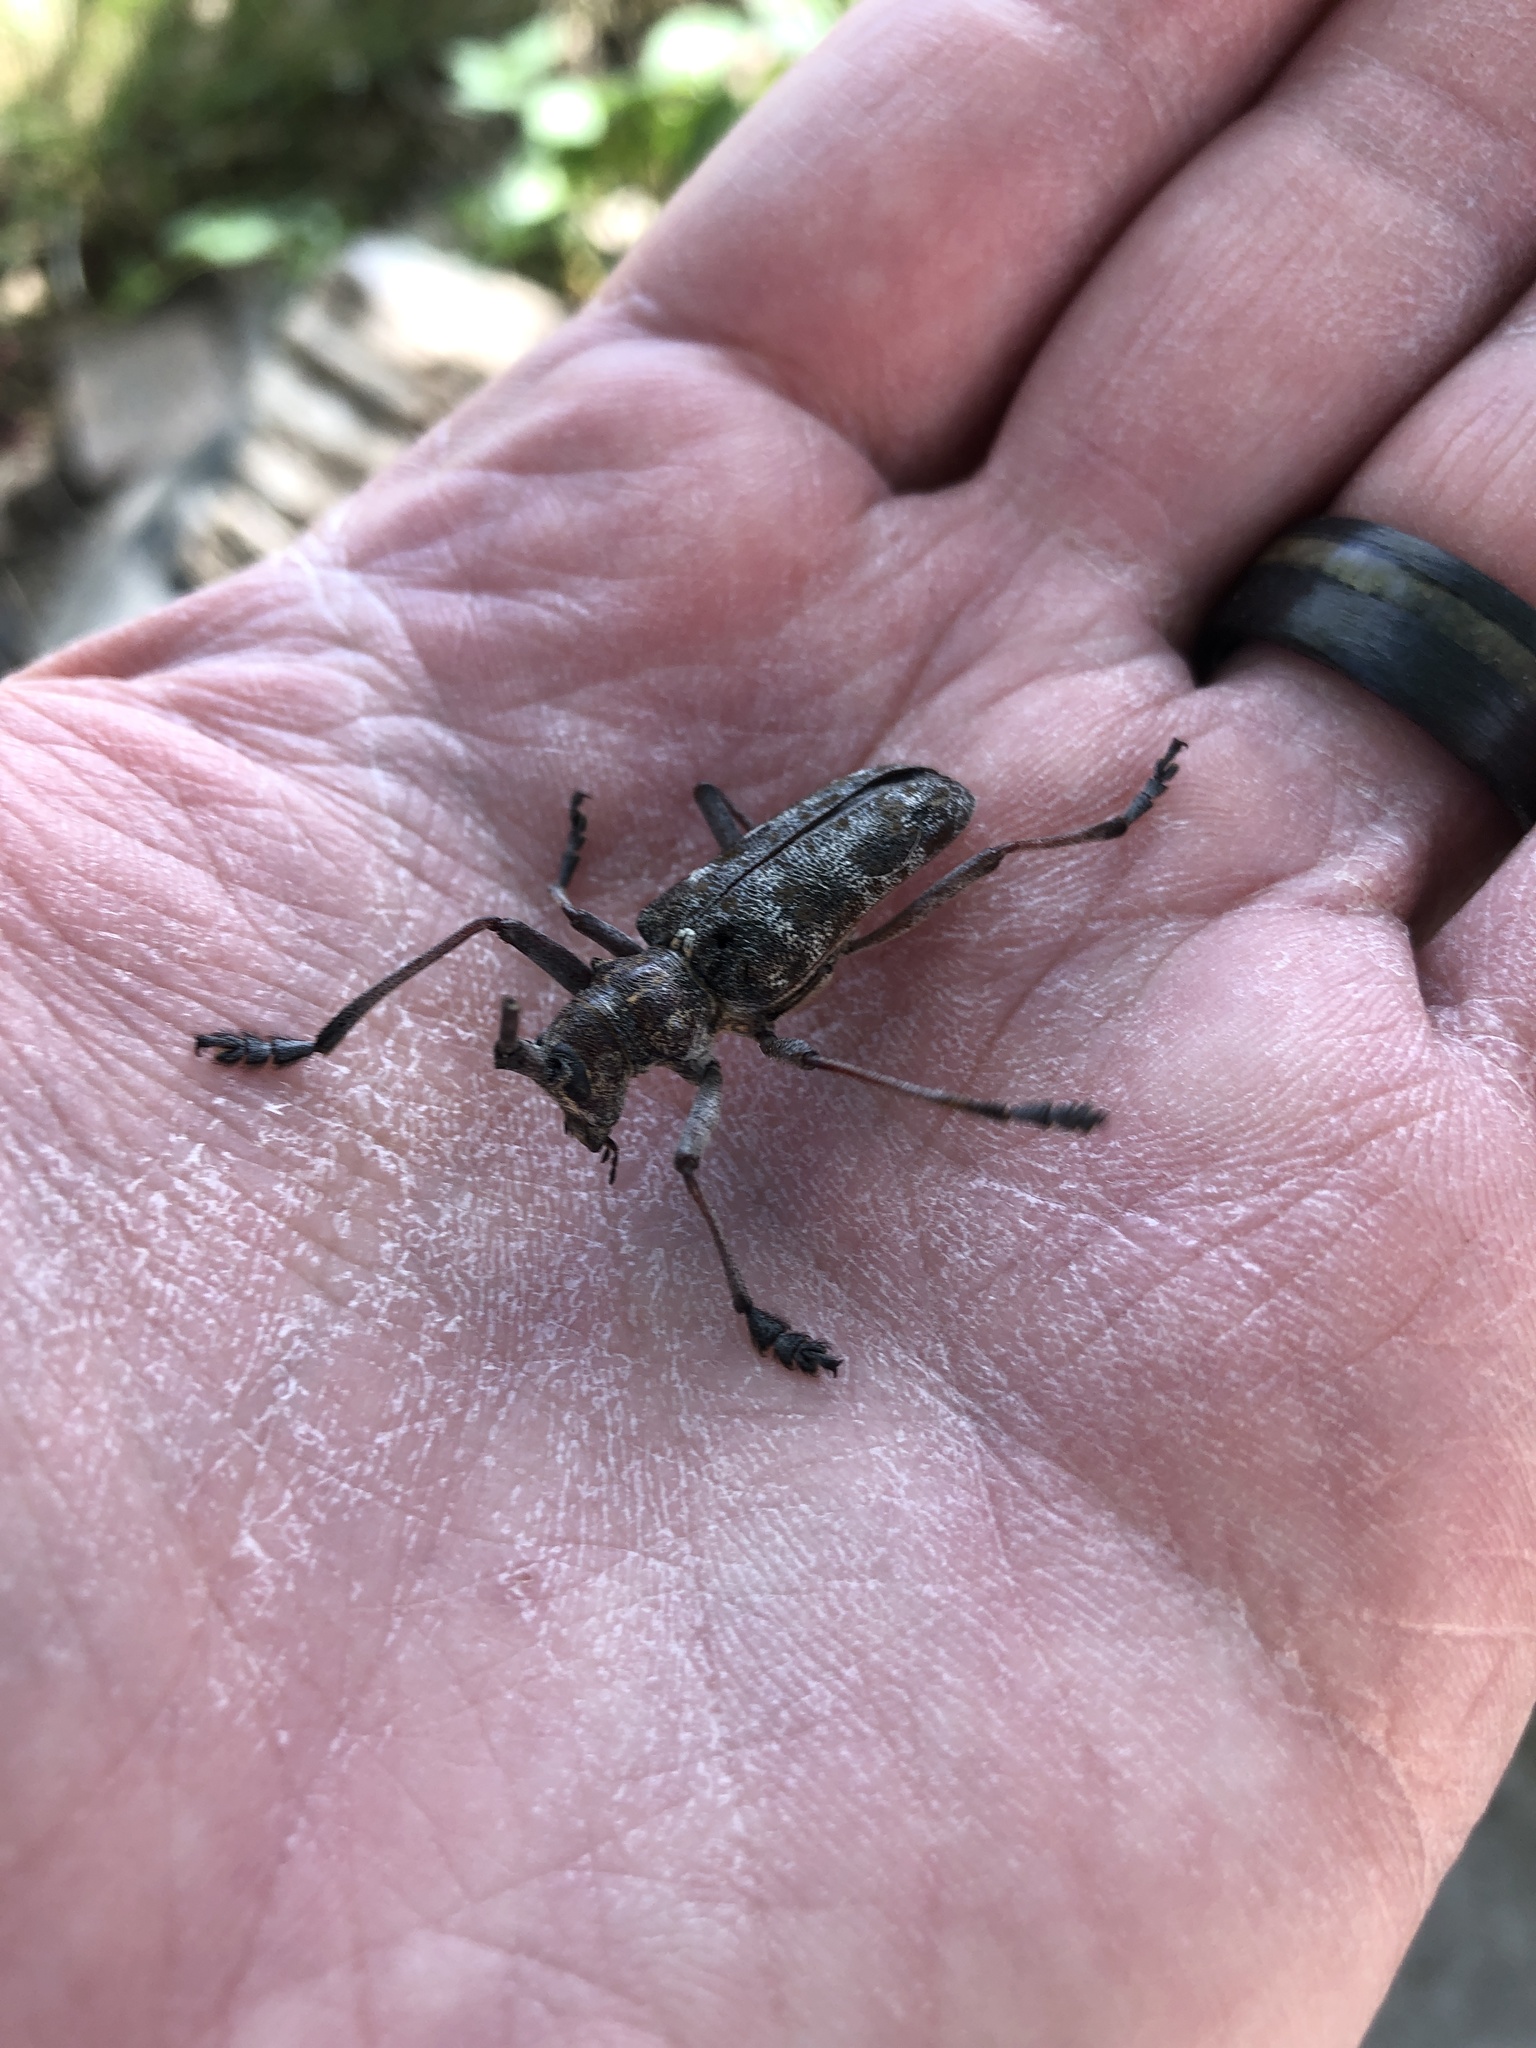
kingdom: Animalia
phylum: Arthropoda
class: Insecta
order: Coleoptera
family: Cerambycidae
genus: Monochamus
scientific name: Monochamus clamator
